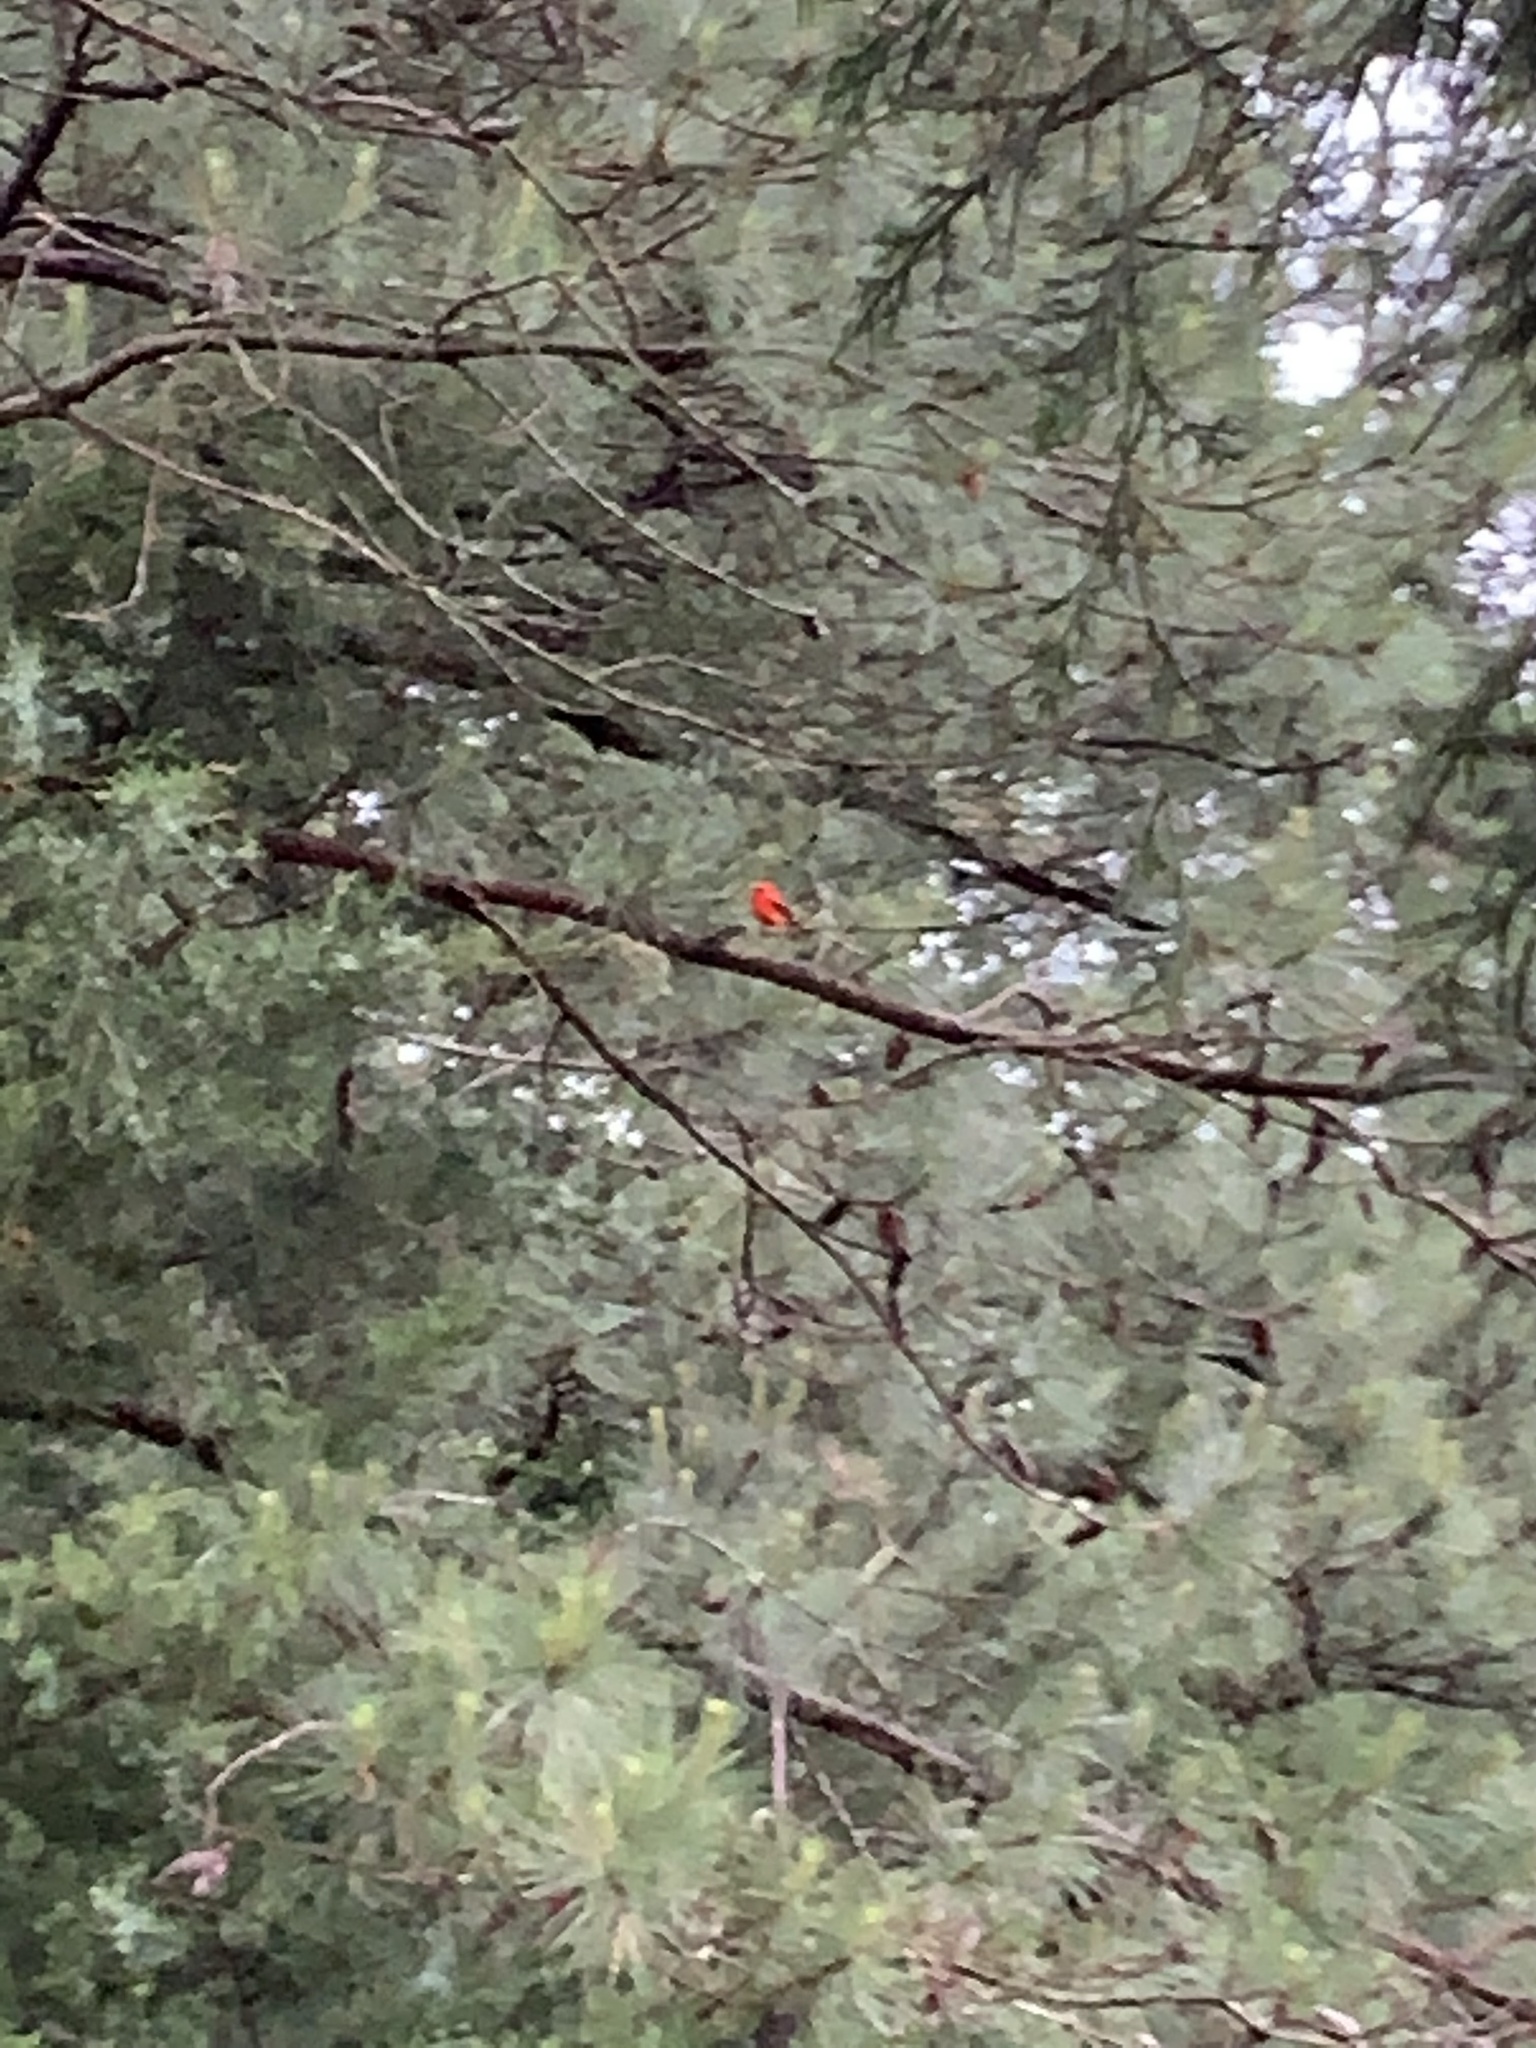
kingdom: Animalia
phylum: Chordata
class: Aves
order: Passeriformes
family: Cardinalidae
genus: Piranga
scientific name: Piranga olivacea
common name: Scarlet tanager
